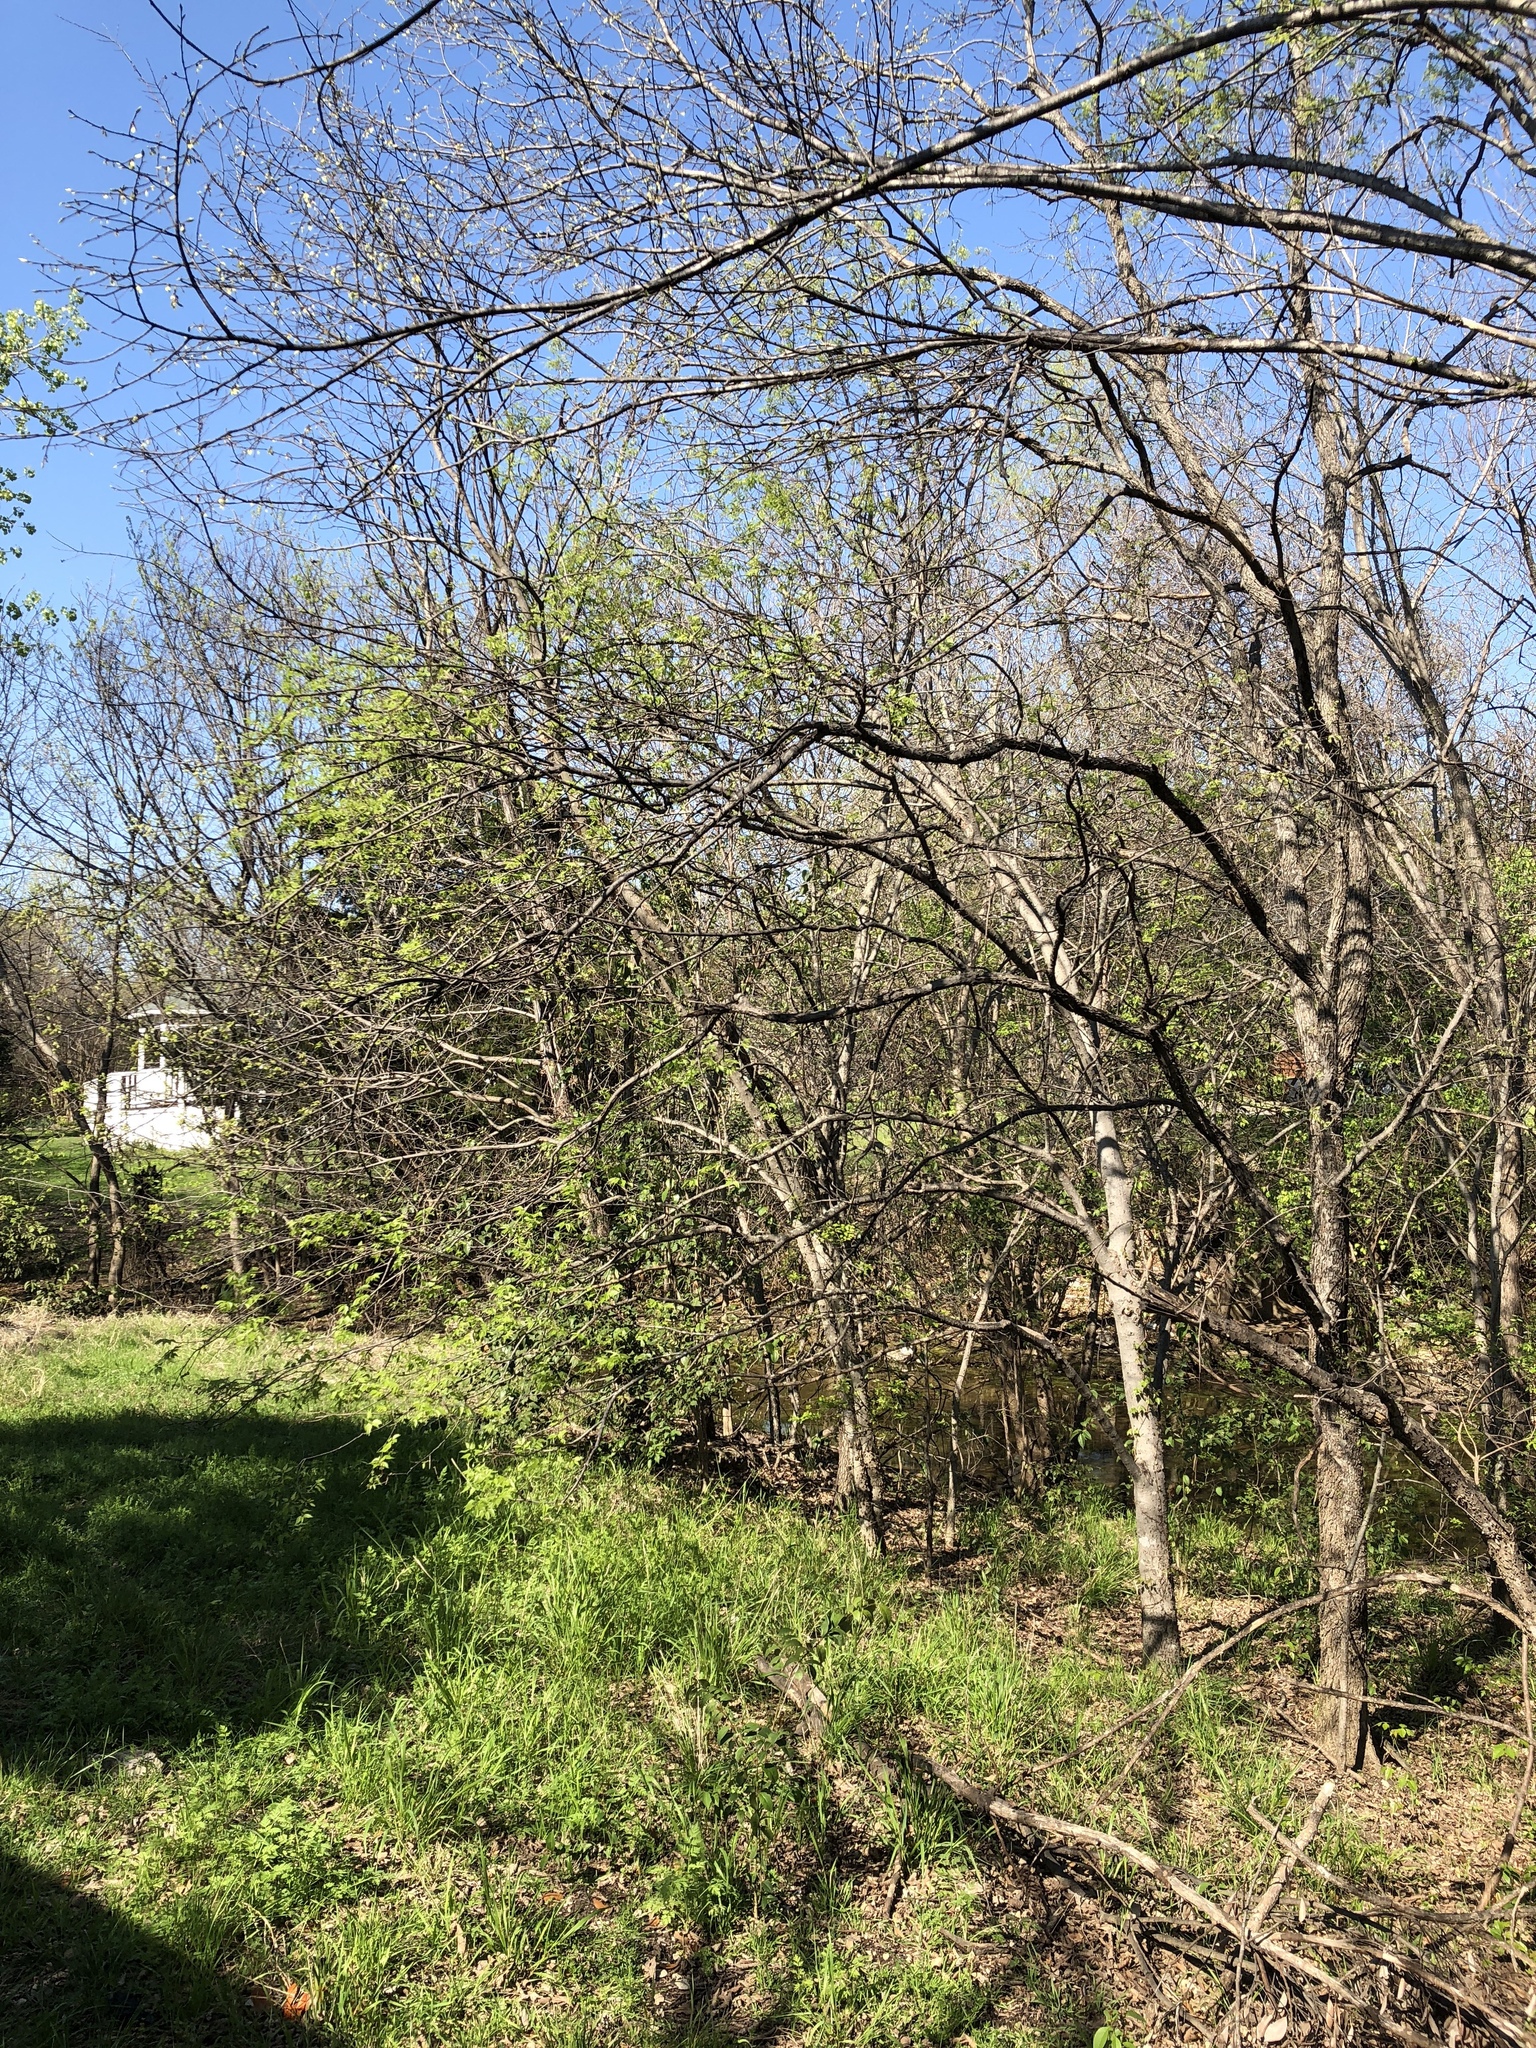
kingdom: Plantae
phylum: Tracheophyta
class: Magnoliopsida
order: Rosales
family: Cannabaceae
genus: Celtis
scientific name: Celtis laevigata
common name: Sugarberry
